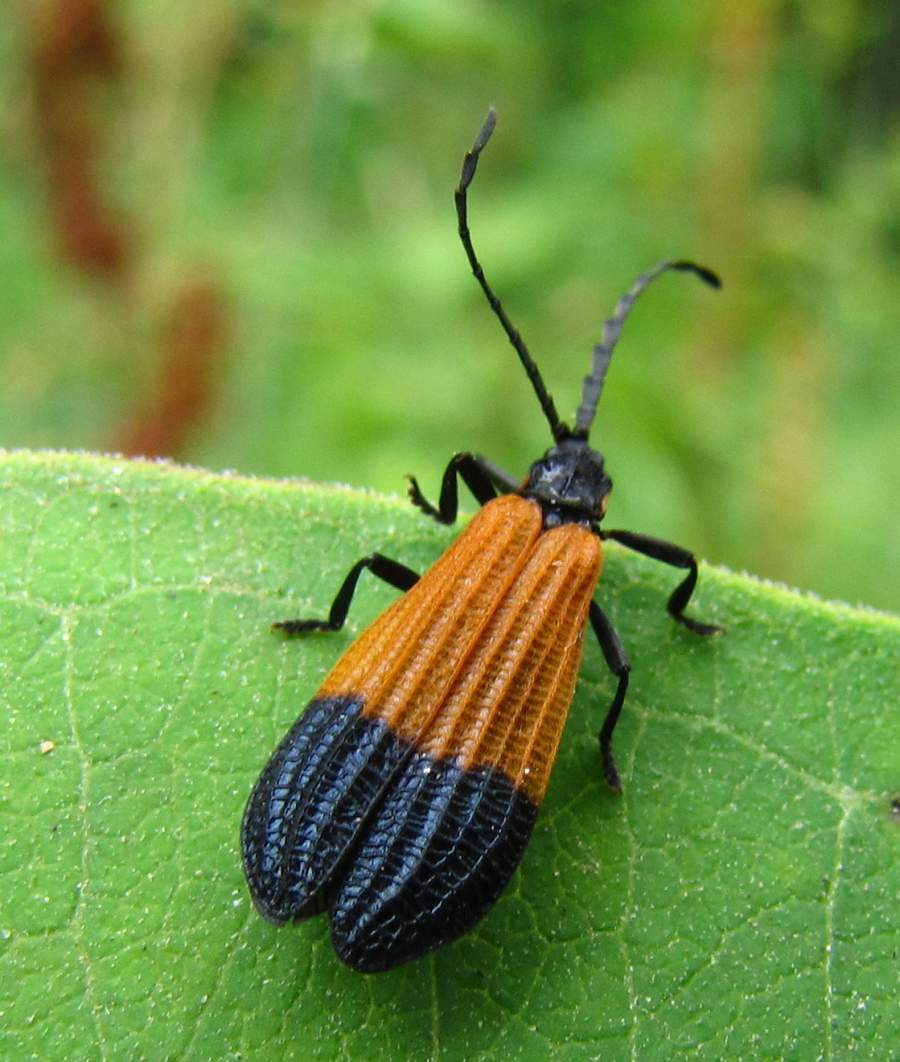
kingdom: Animalia
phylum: Arthropoda
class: Insecta
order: Coleoptera
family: Lycidae
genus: Calopteron
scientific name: Calopteron terminale
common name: End band net-winged beetle
